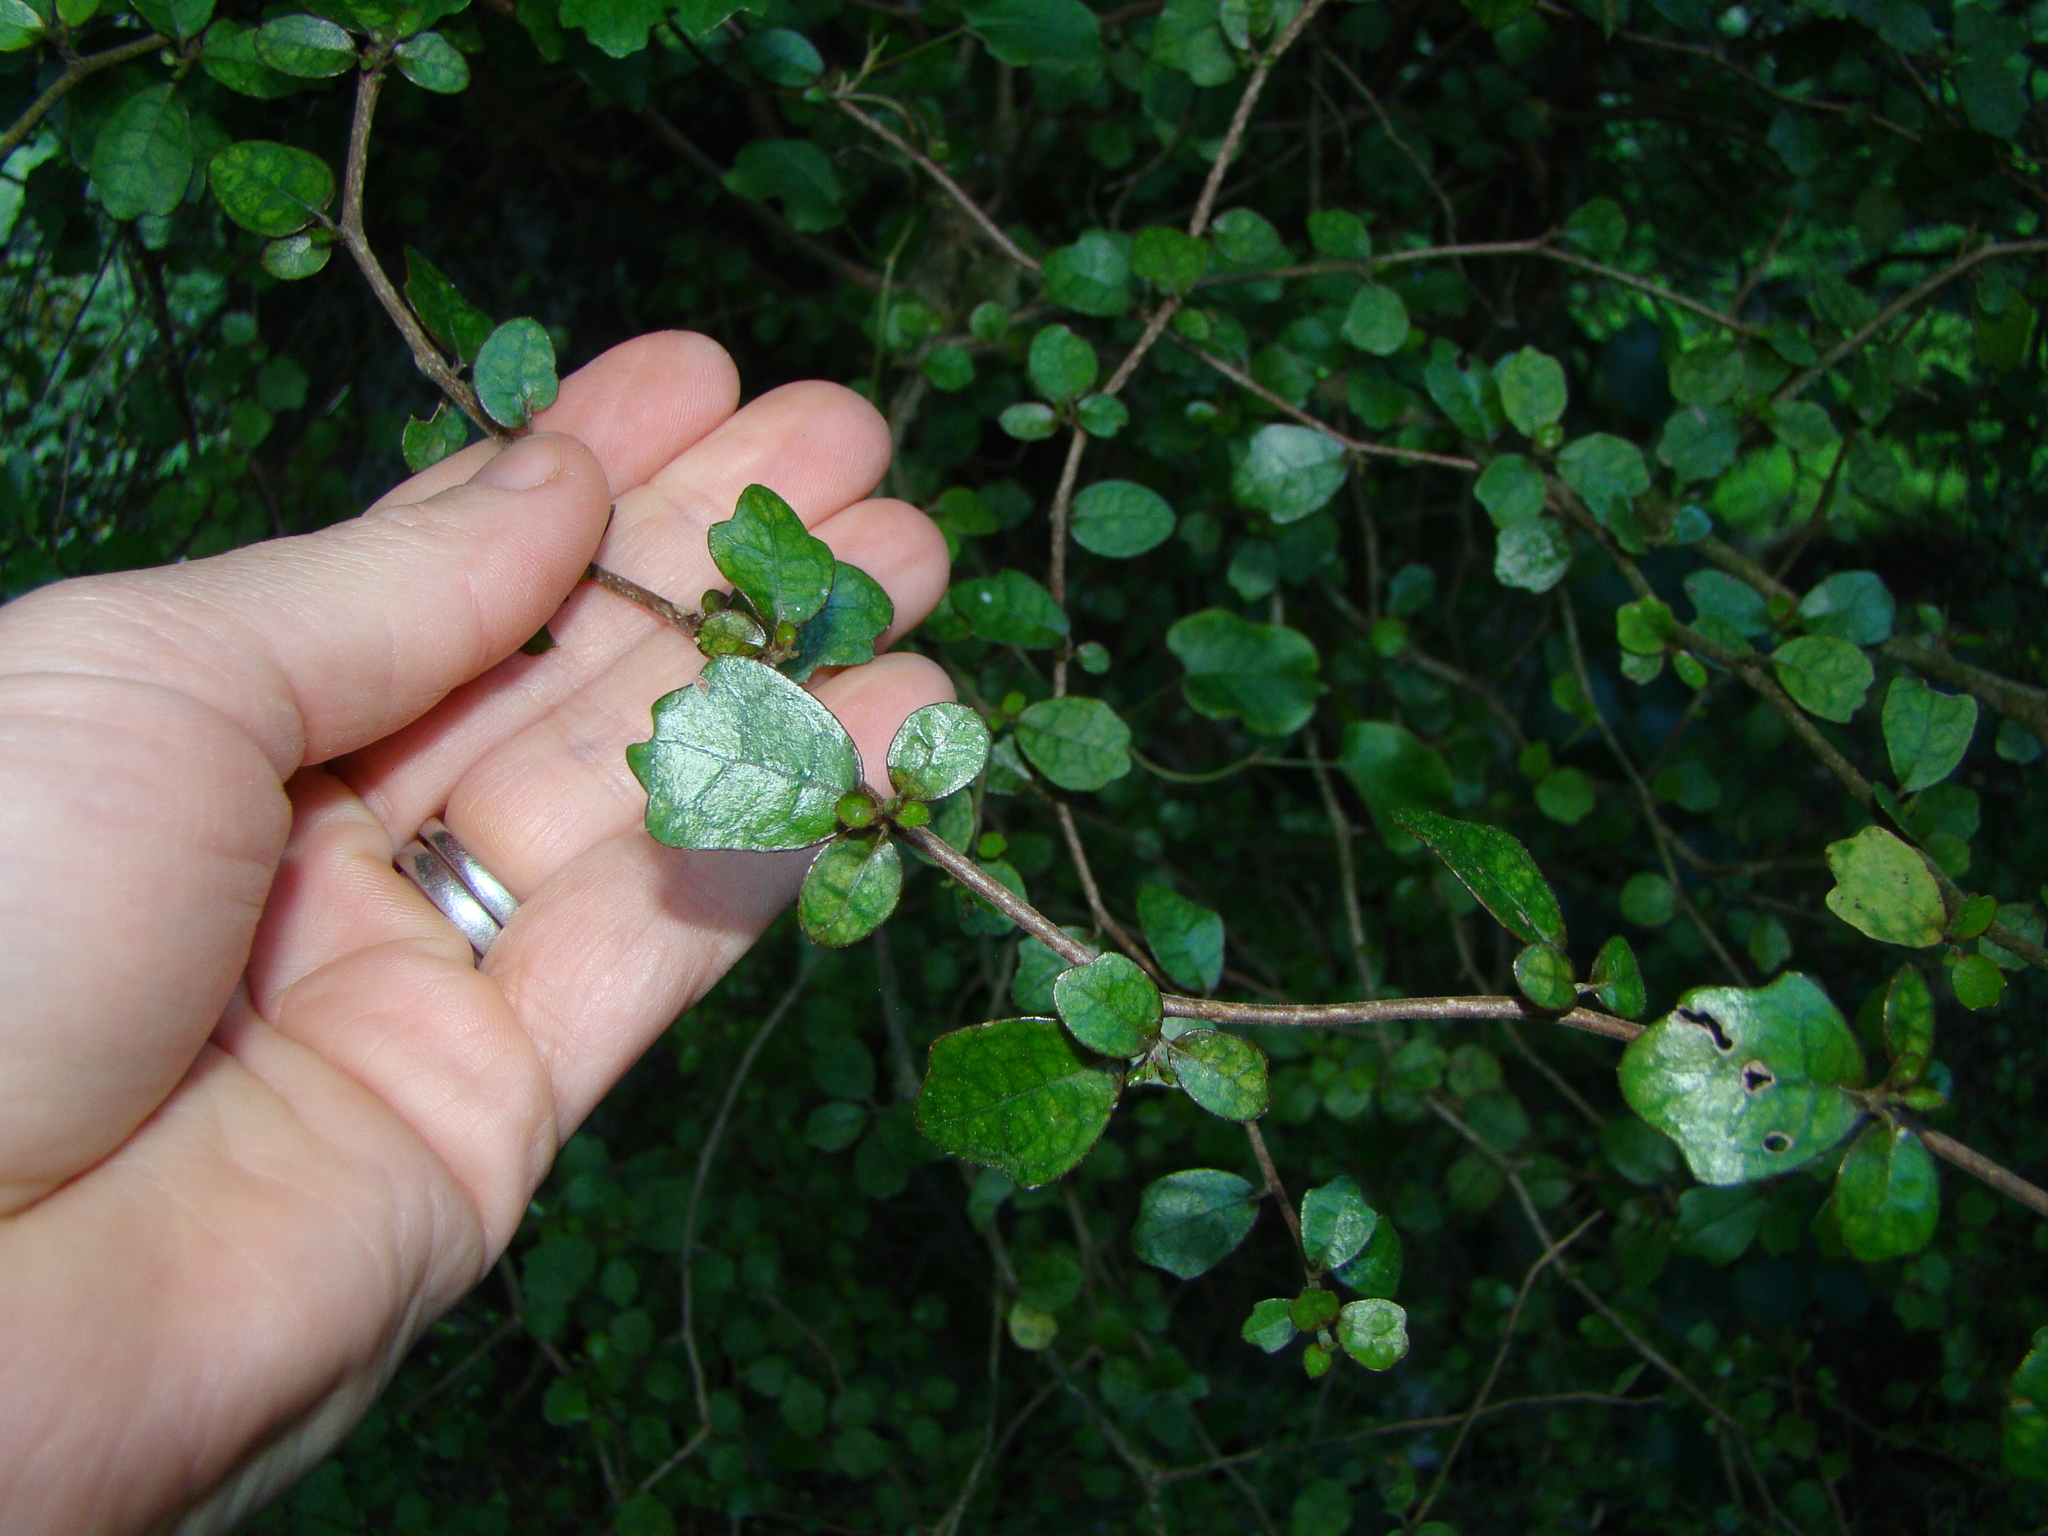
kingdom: Plantae
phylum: Tracheophyta
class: Magnoliopsida
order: Apiales
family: Pennantiaceae
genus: Pennantia
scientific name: Pennantia corymbosa
